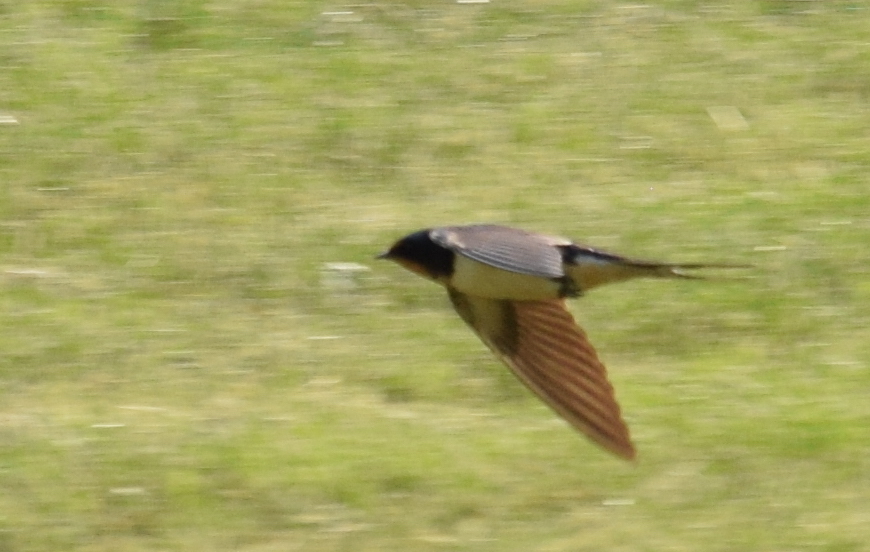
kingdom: Animalia
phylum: Chordata
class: Aves
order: Passeriformes
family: Hirundinidae
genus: Hirundo
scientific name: Hirundo rustica
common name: Barn swallow
